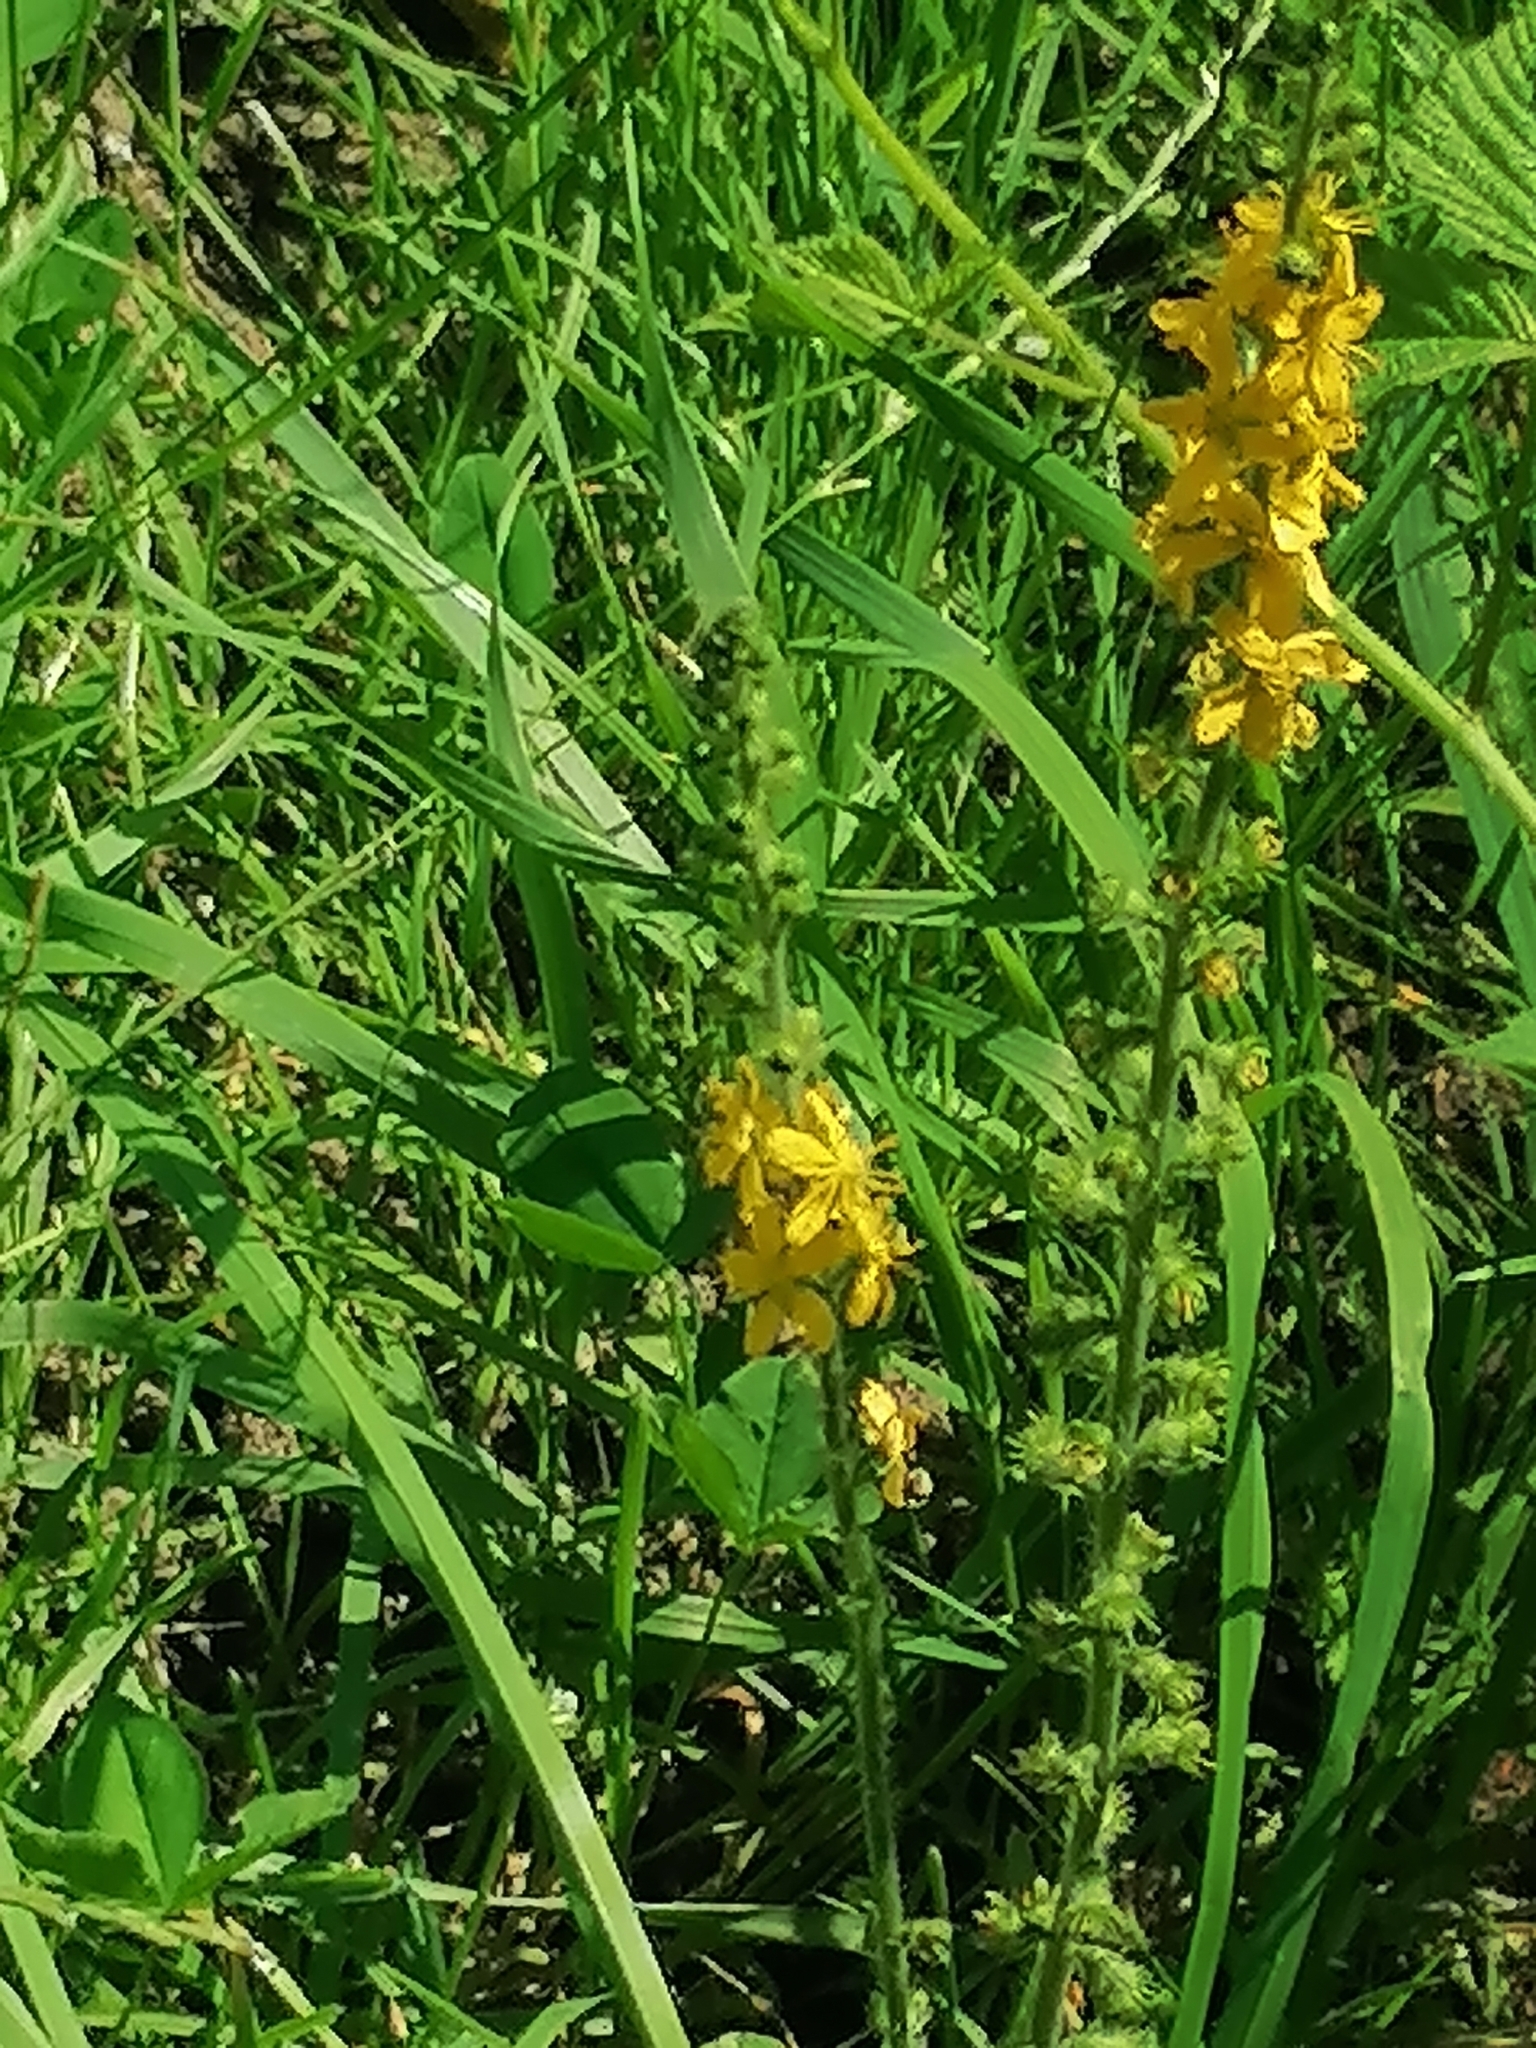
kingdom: Plantae
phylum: Tracheophyta
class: Magnoliopsida
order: Rosales
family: Rosaceae
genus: Agrimonia
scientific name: Agrimonia eupatoria
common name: Agrimony
